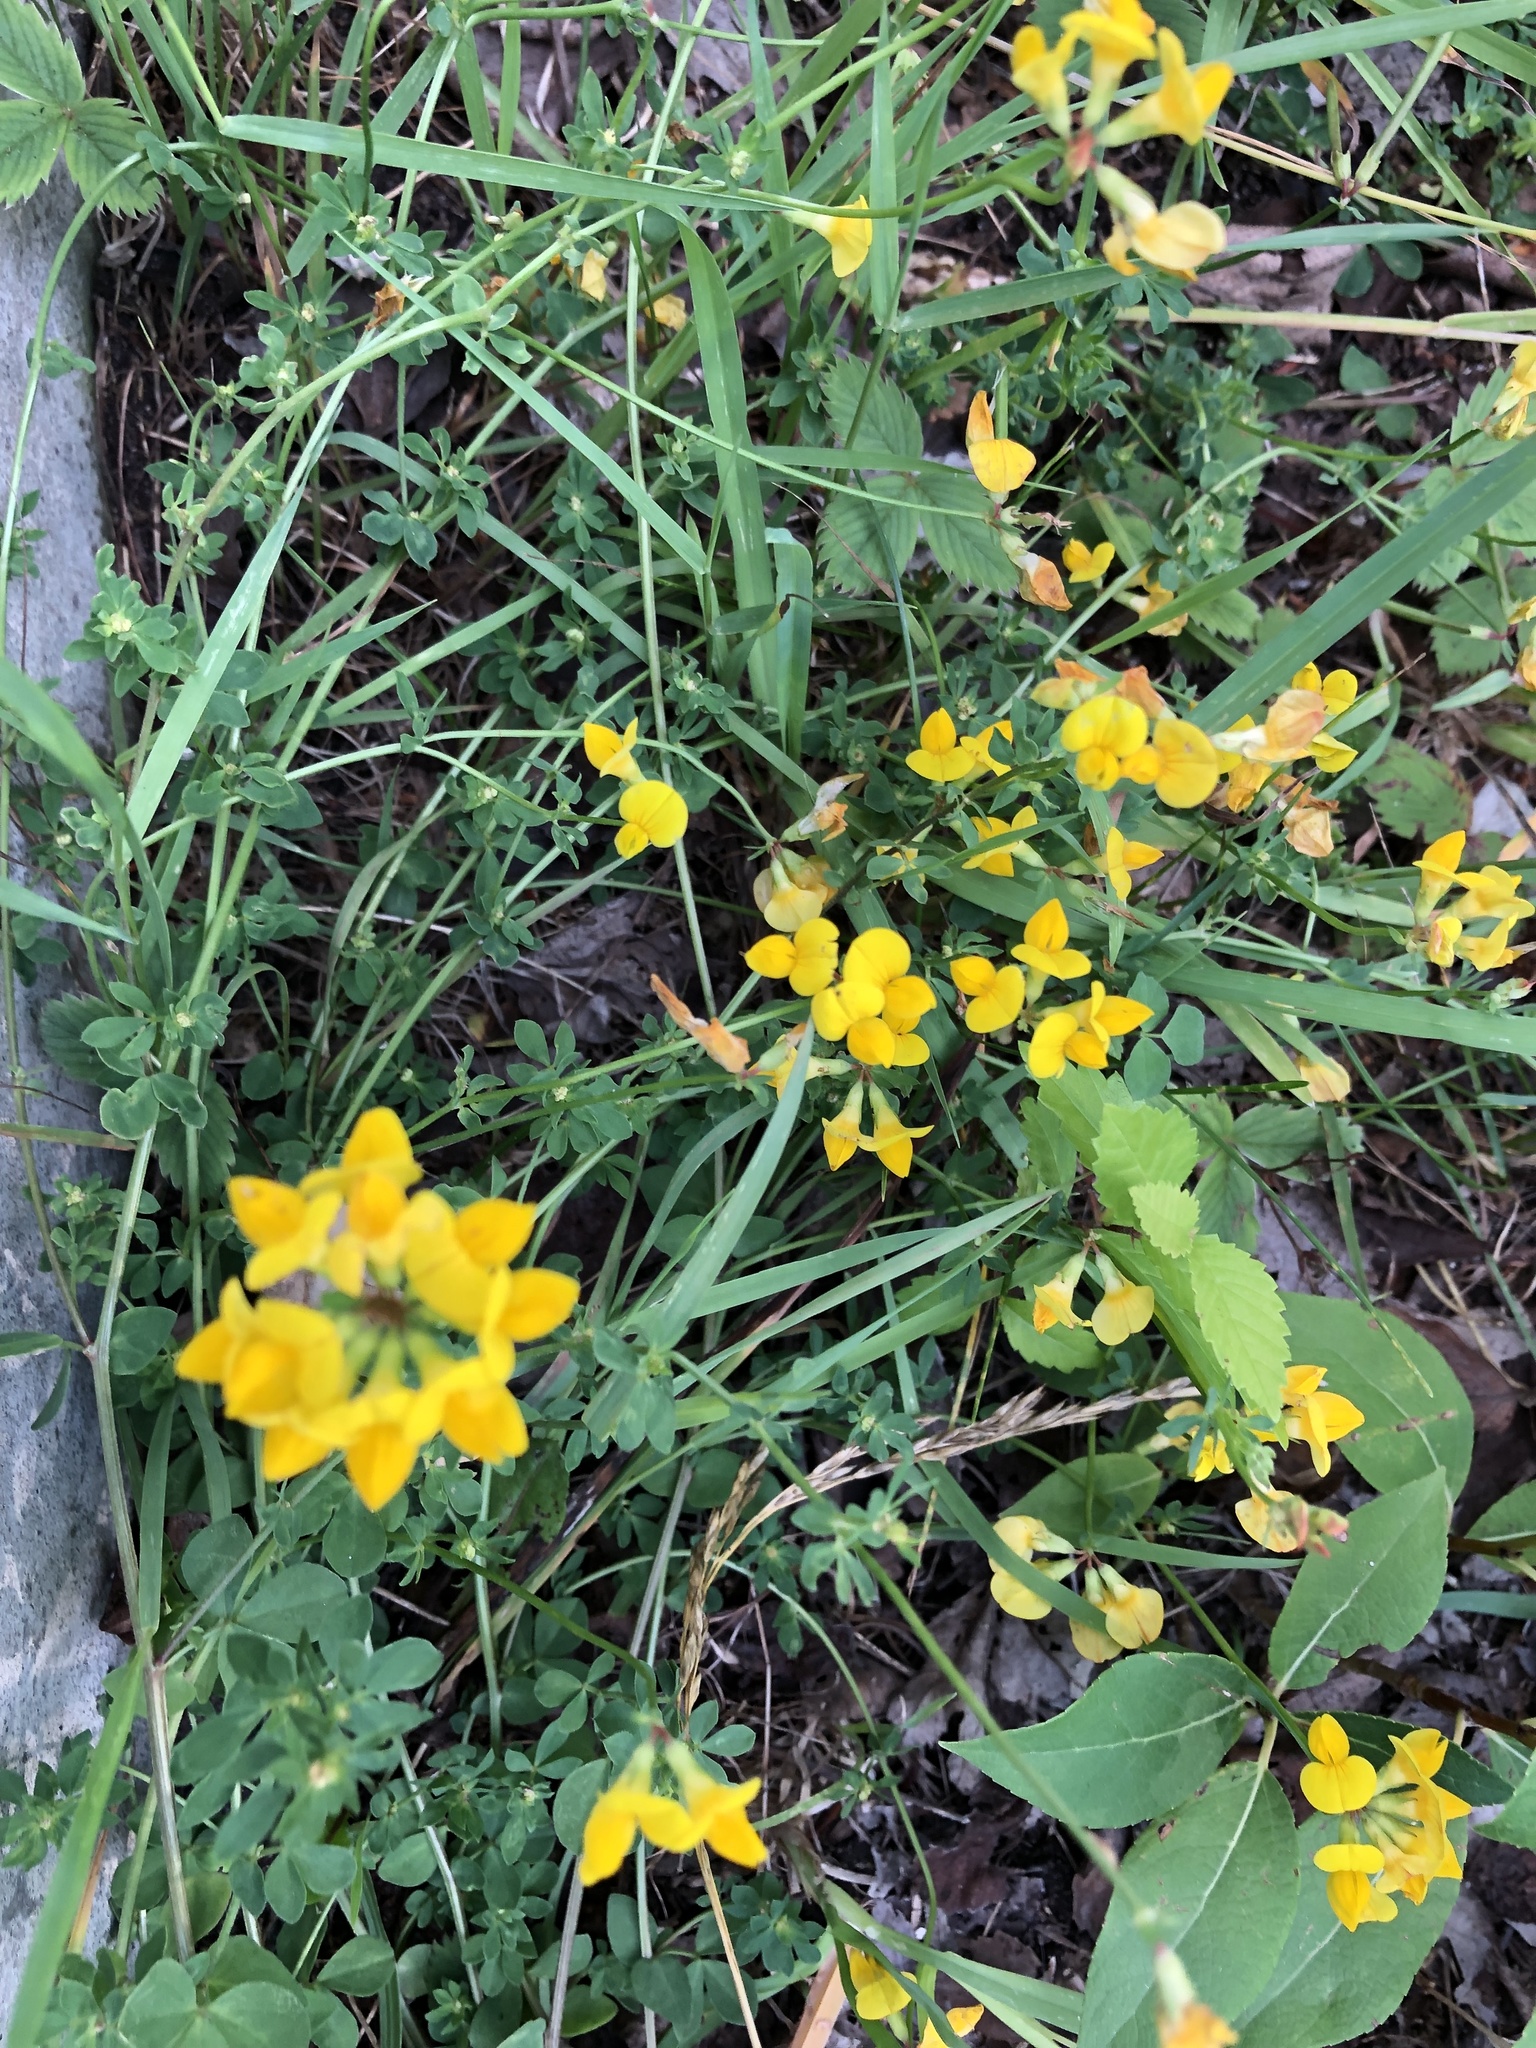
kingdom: Plantae
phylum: Tracheophyta
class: Magnoliopsida
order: Fabales
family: Fabaceae
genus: Lotus
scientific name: Lotus corniculatus
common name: Common bird's-foot-trefoil
